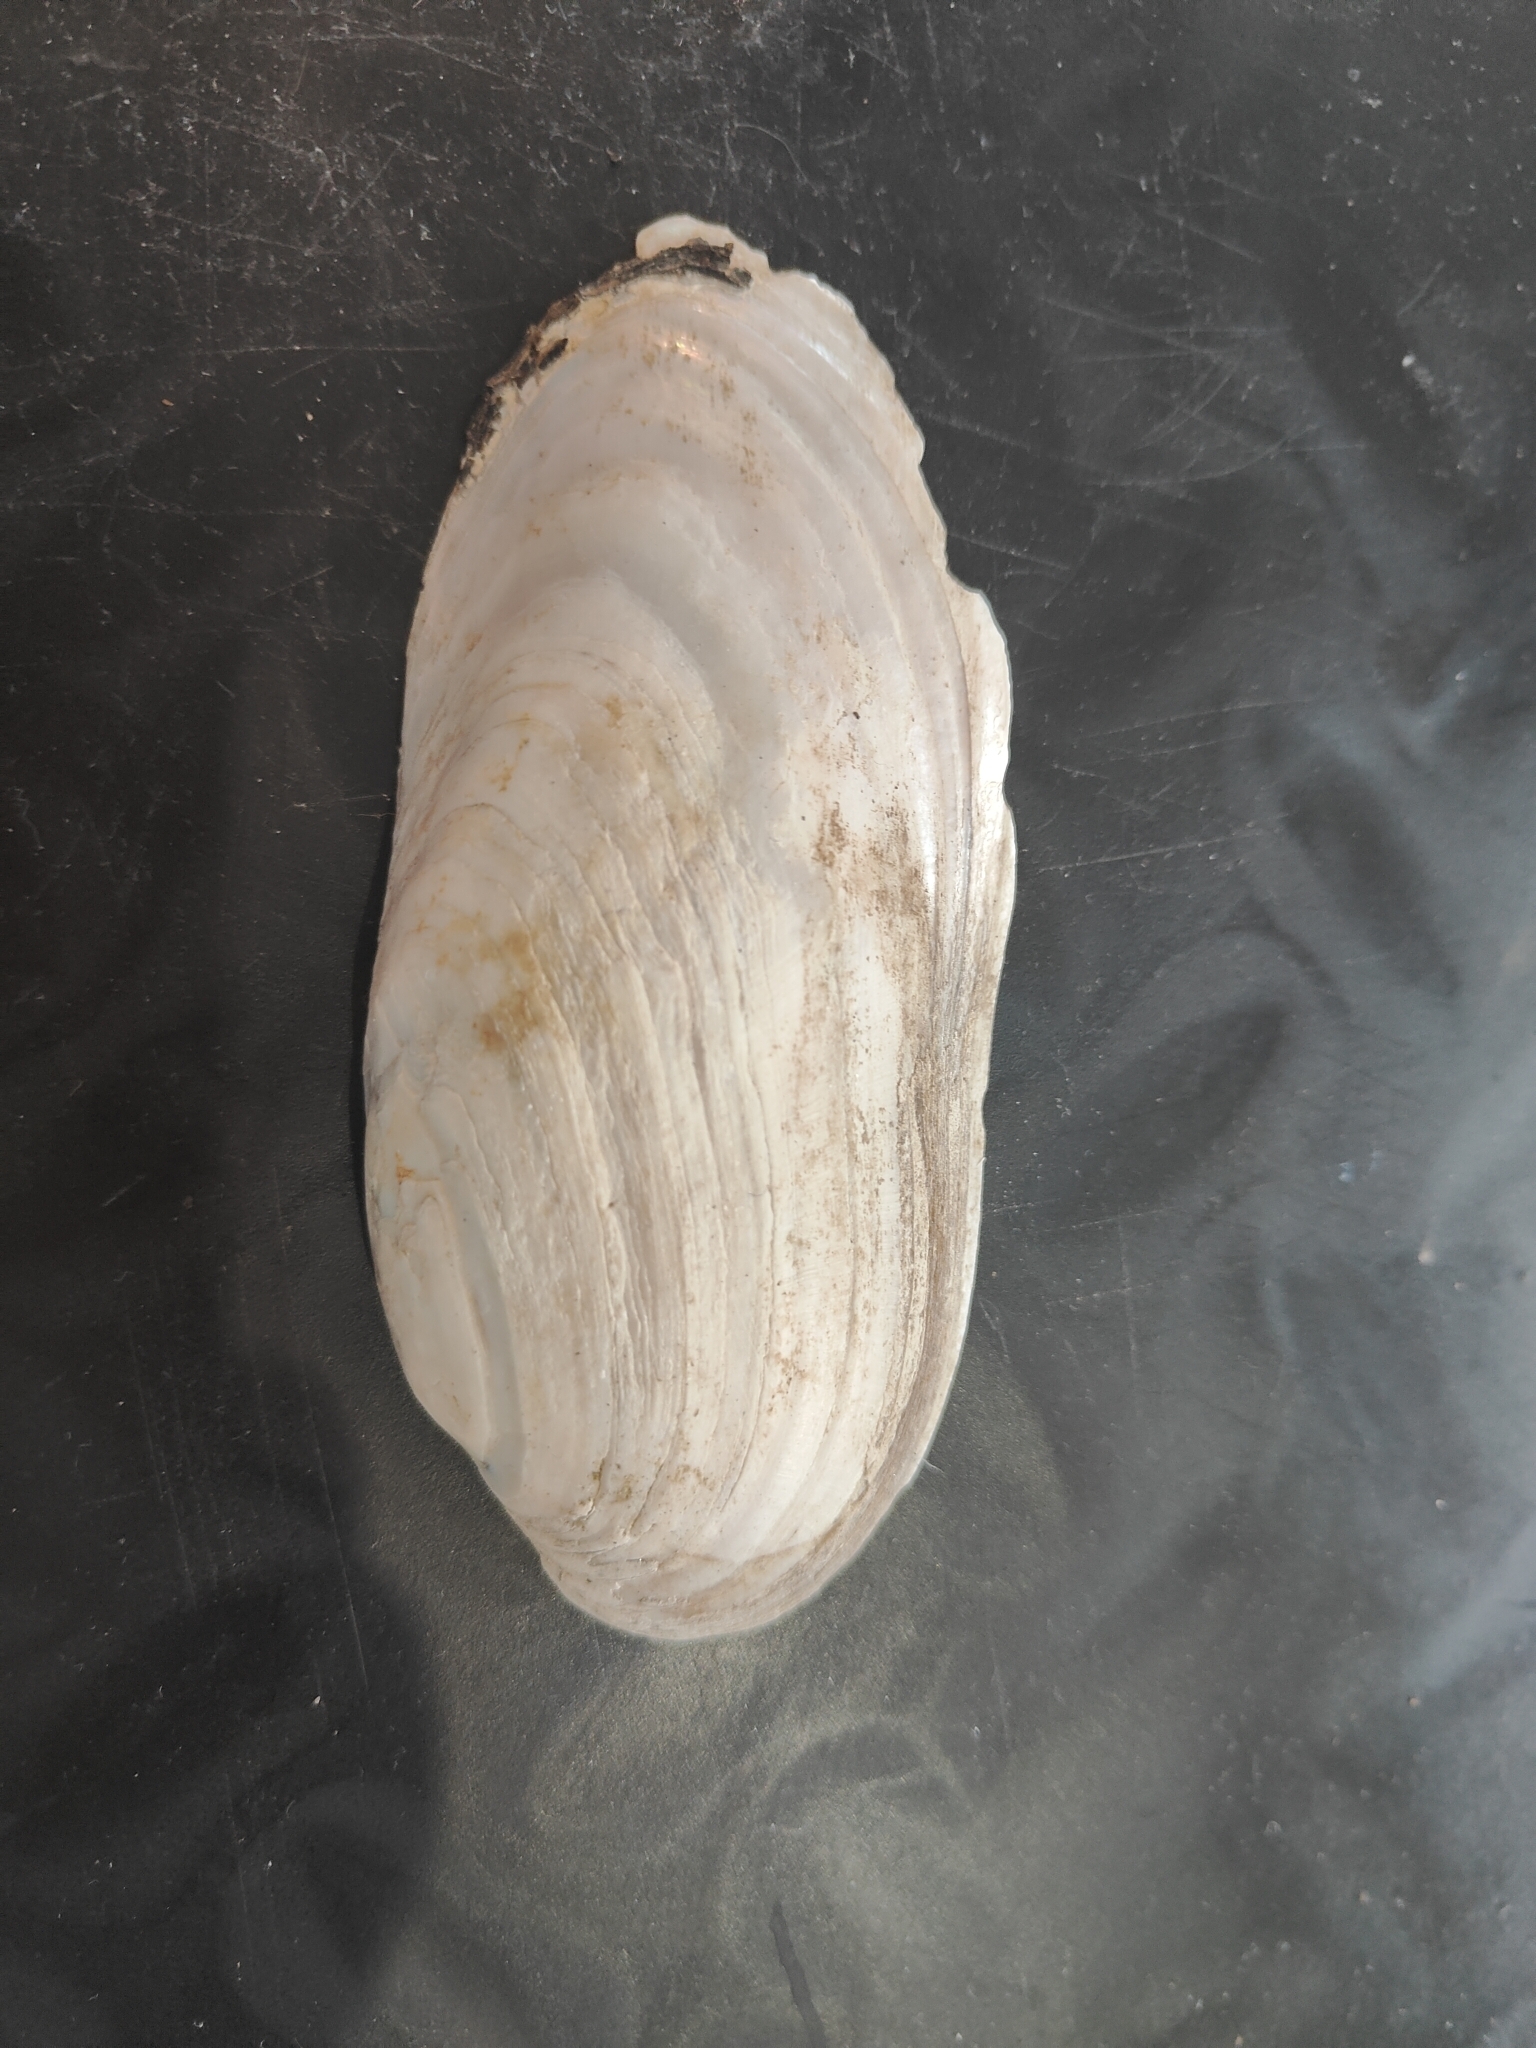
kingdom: Animalia
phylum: Mollusca
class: Bivalvia
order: Unionida
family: Unionidae
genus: Ligumia
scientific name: Ligumia recta
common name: Black sandshell
